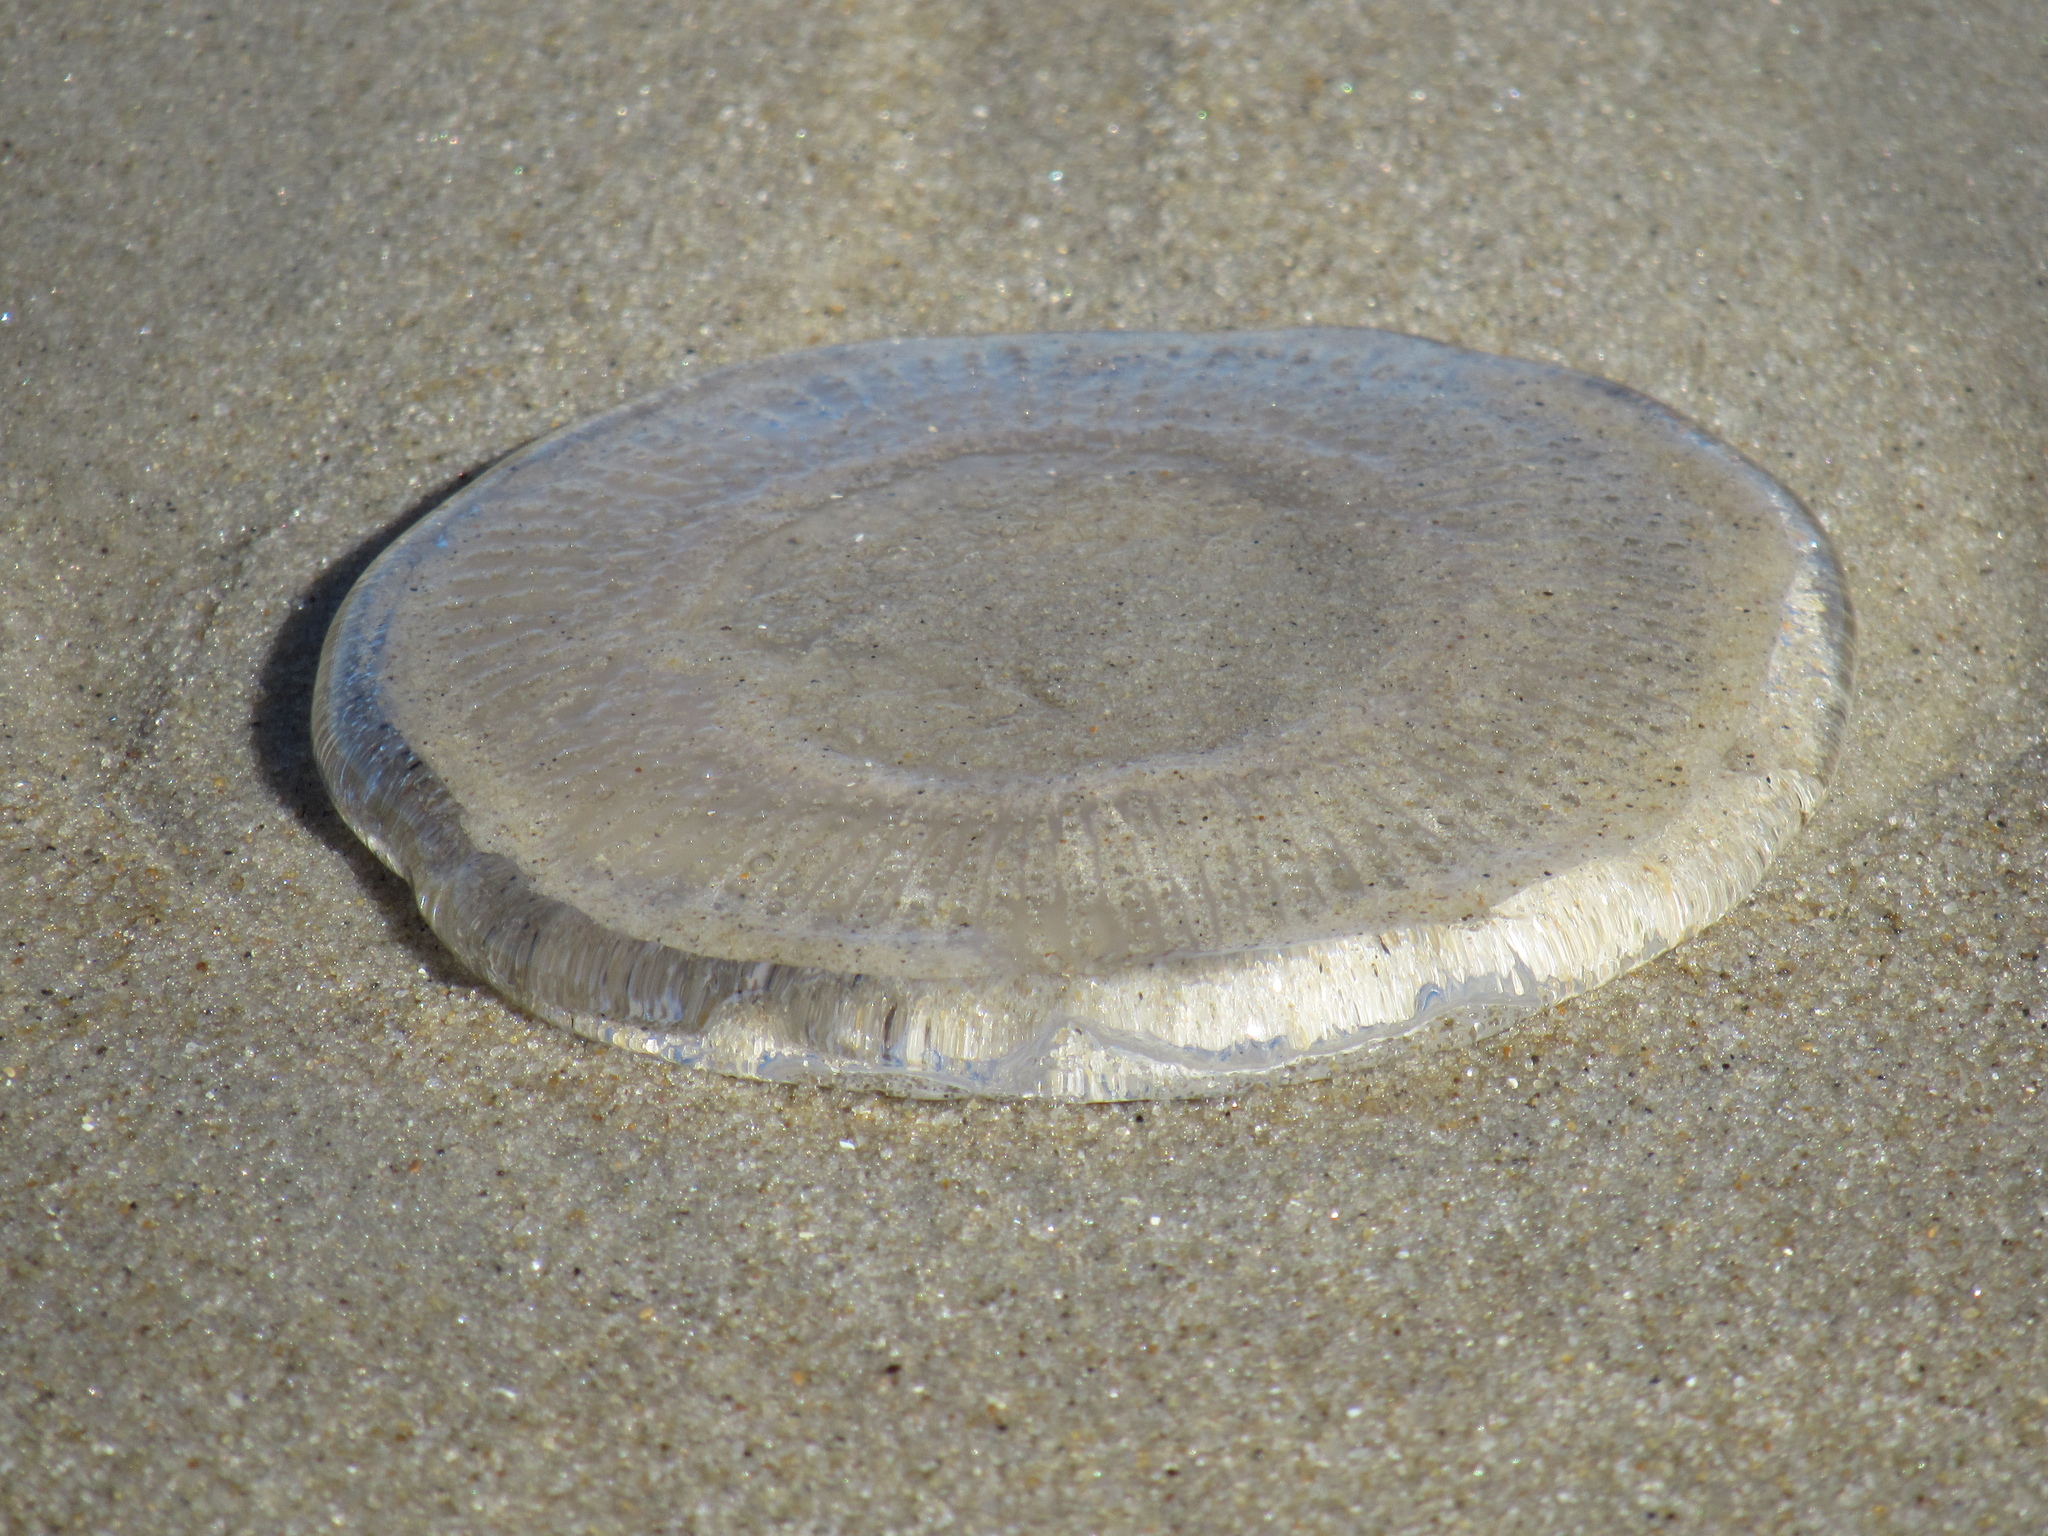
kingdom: Animalia
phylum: Cnidaria
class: Hydrozoa
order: Leptothecata
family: Aequoreidae
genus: Rhacostoma
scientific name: Rhacostoma atlanticum
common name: Lined water jelly
